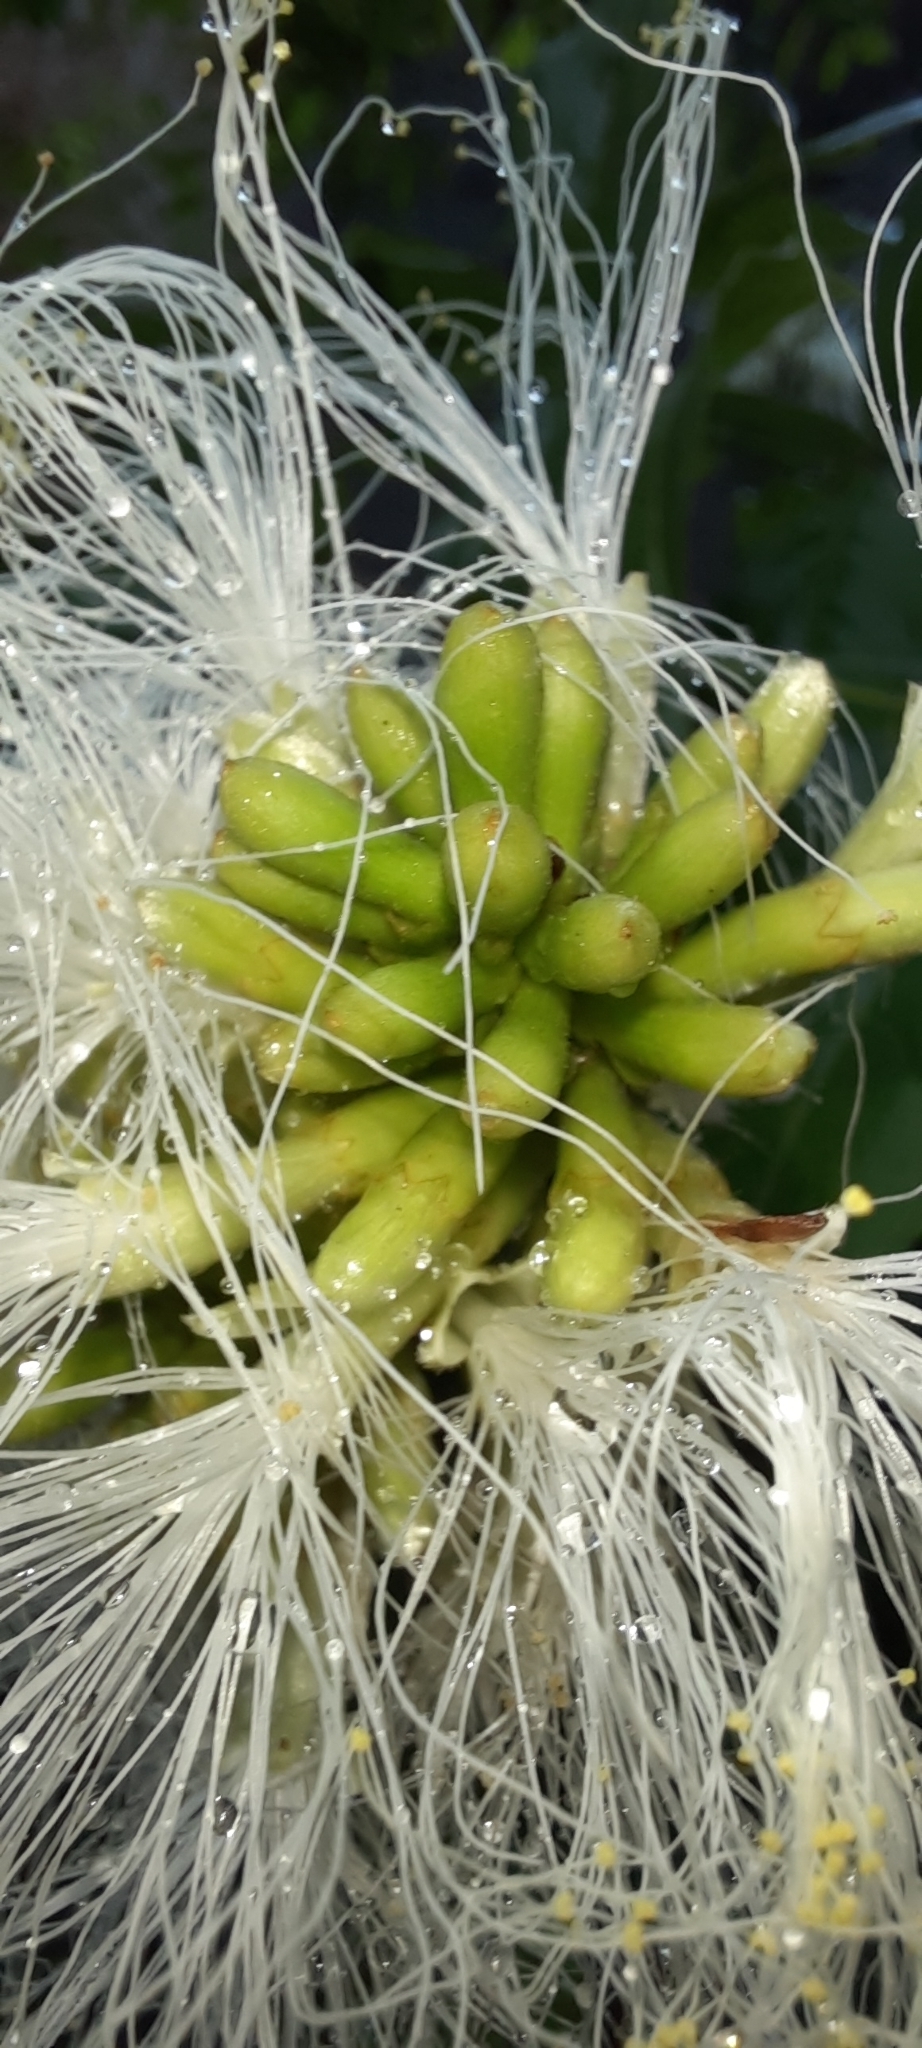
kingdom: Plantae
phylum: Tracheophyta
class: Magnoliopsida
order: Fabales
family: Fabaceae
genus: Inga
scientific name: Inga edulis
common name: Ice cream bean
